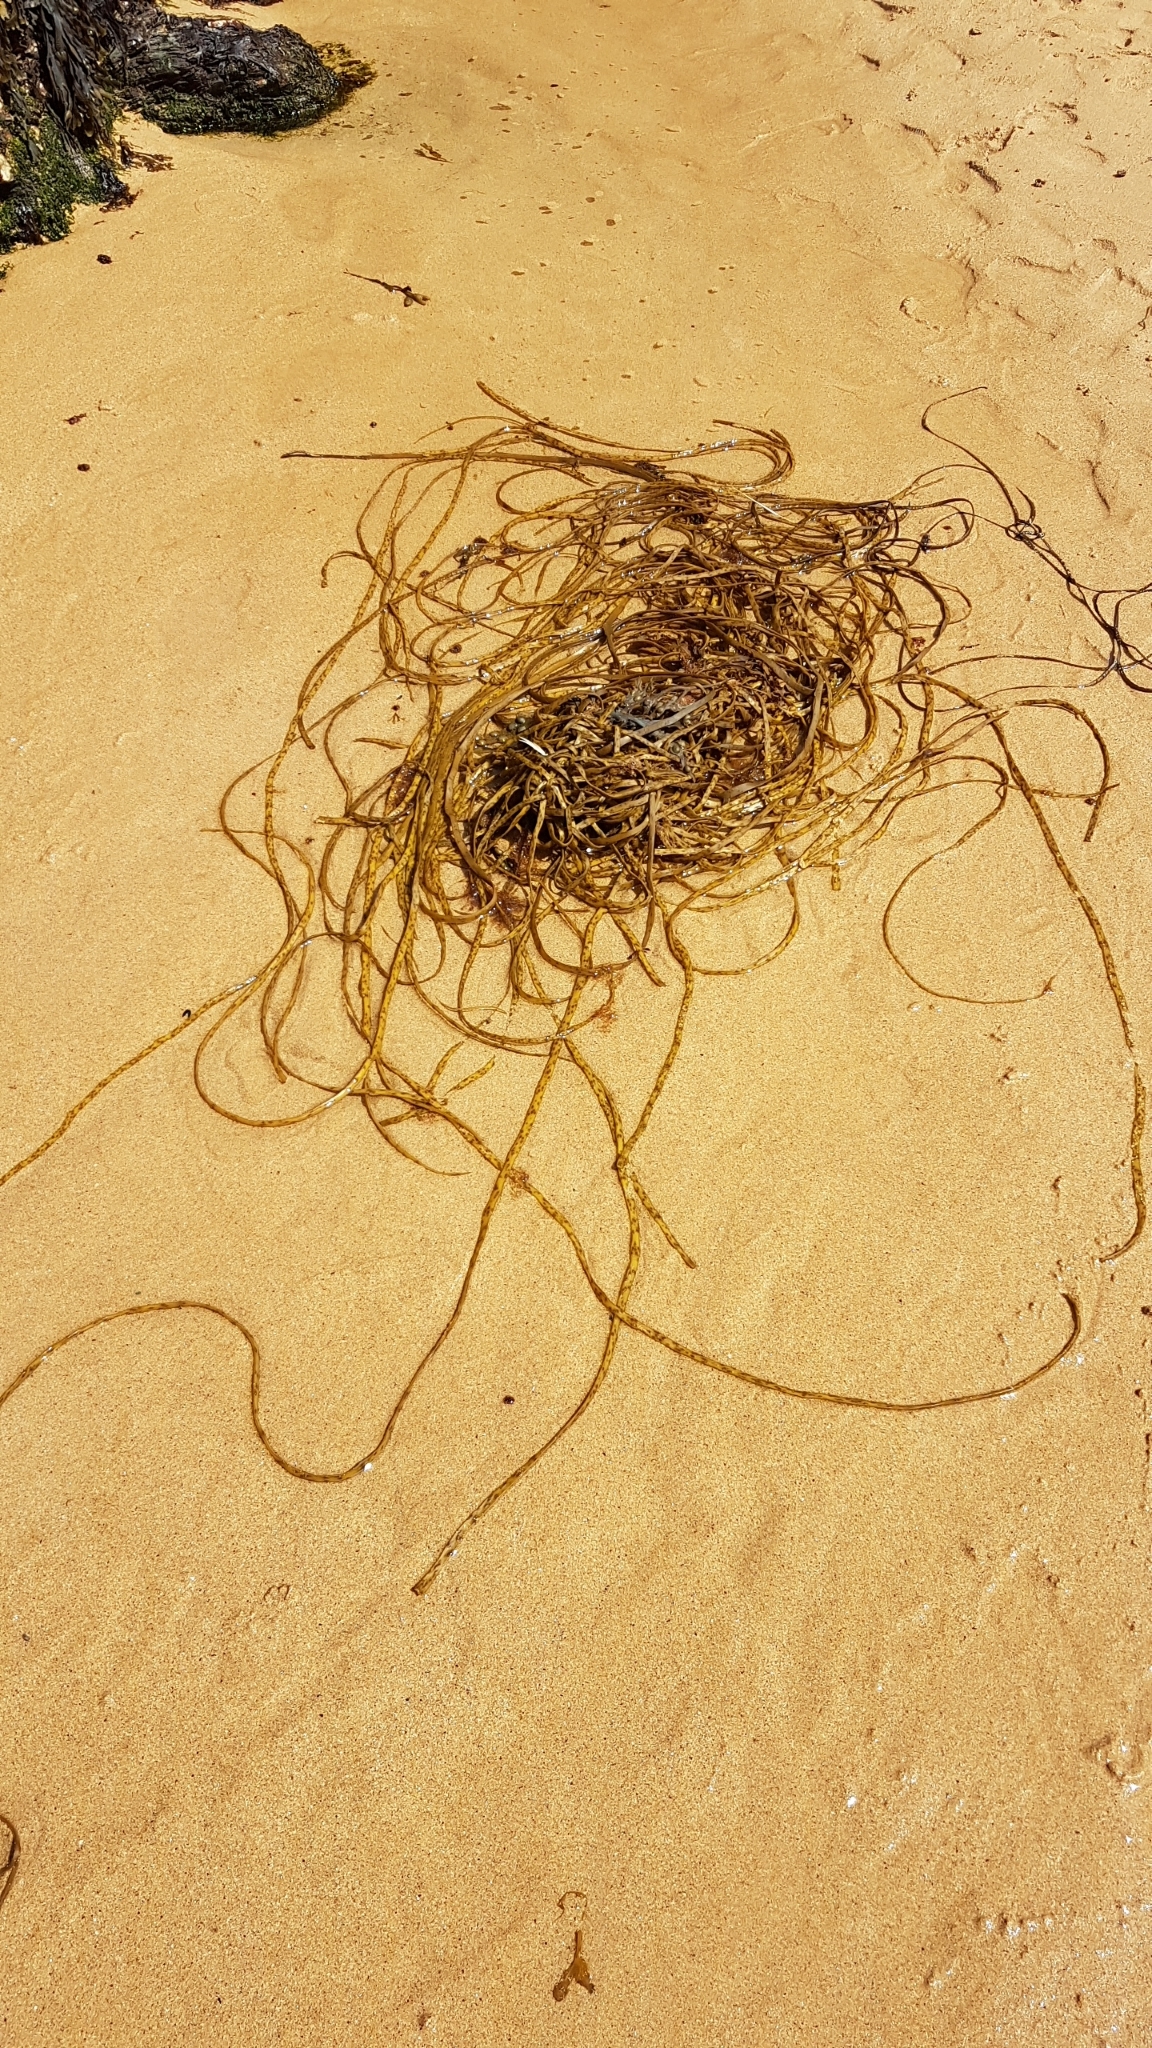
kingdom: Chromista
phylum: Ochrophyta
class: Phaeophyceae
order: Fucales
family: Himanthaliaceae
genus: Himanthalia
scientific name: Himanthalia elongata
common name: Sea-thong
